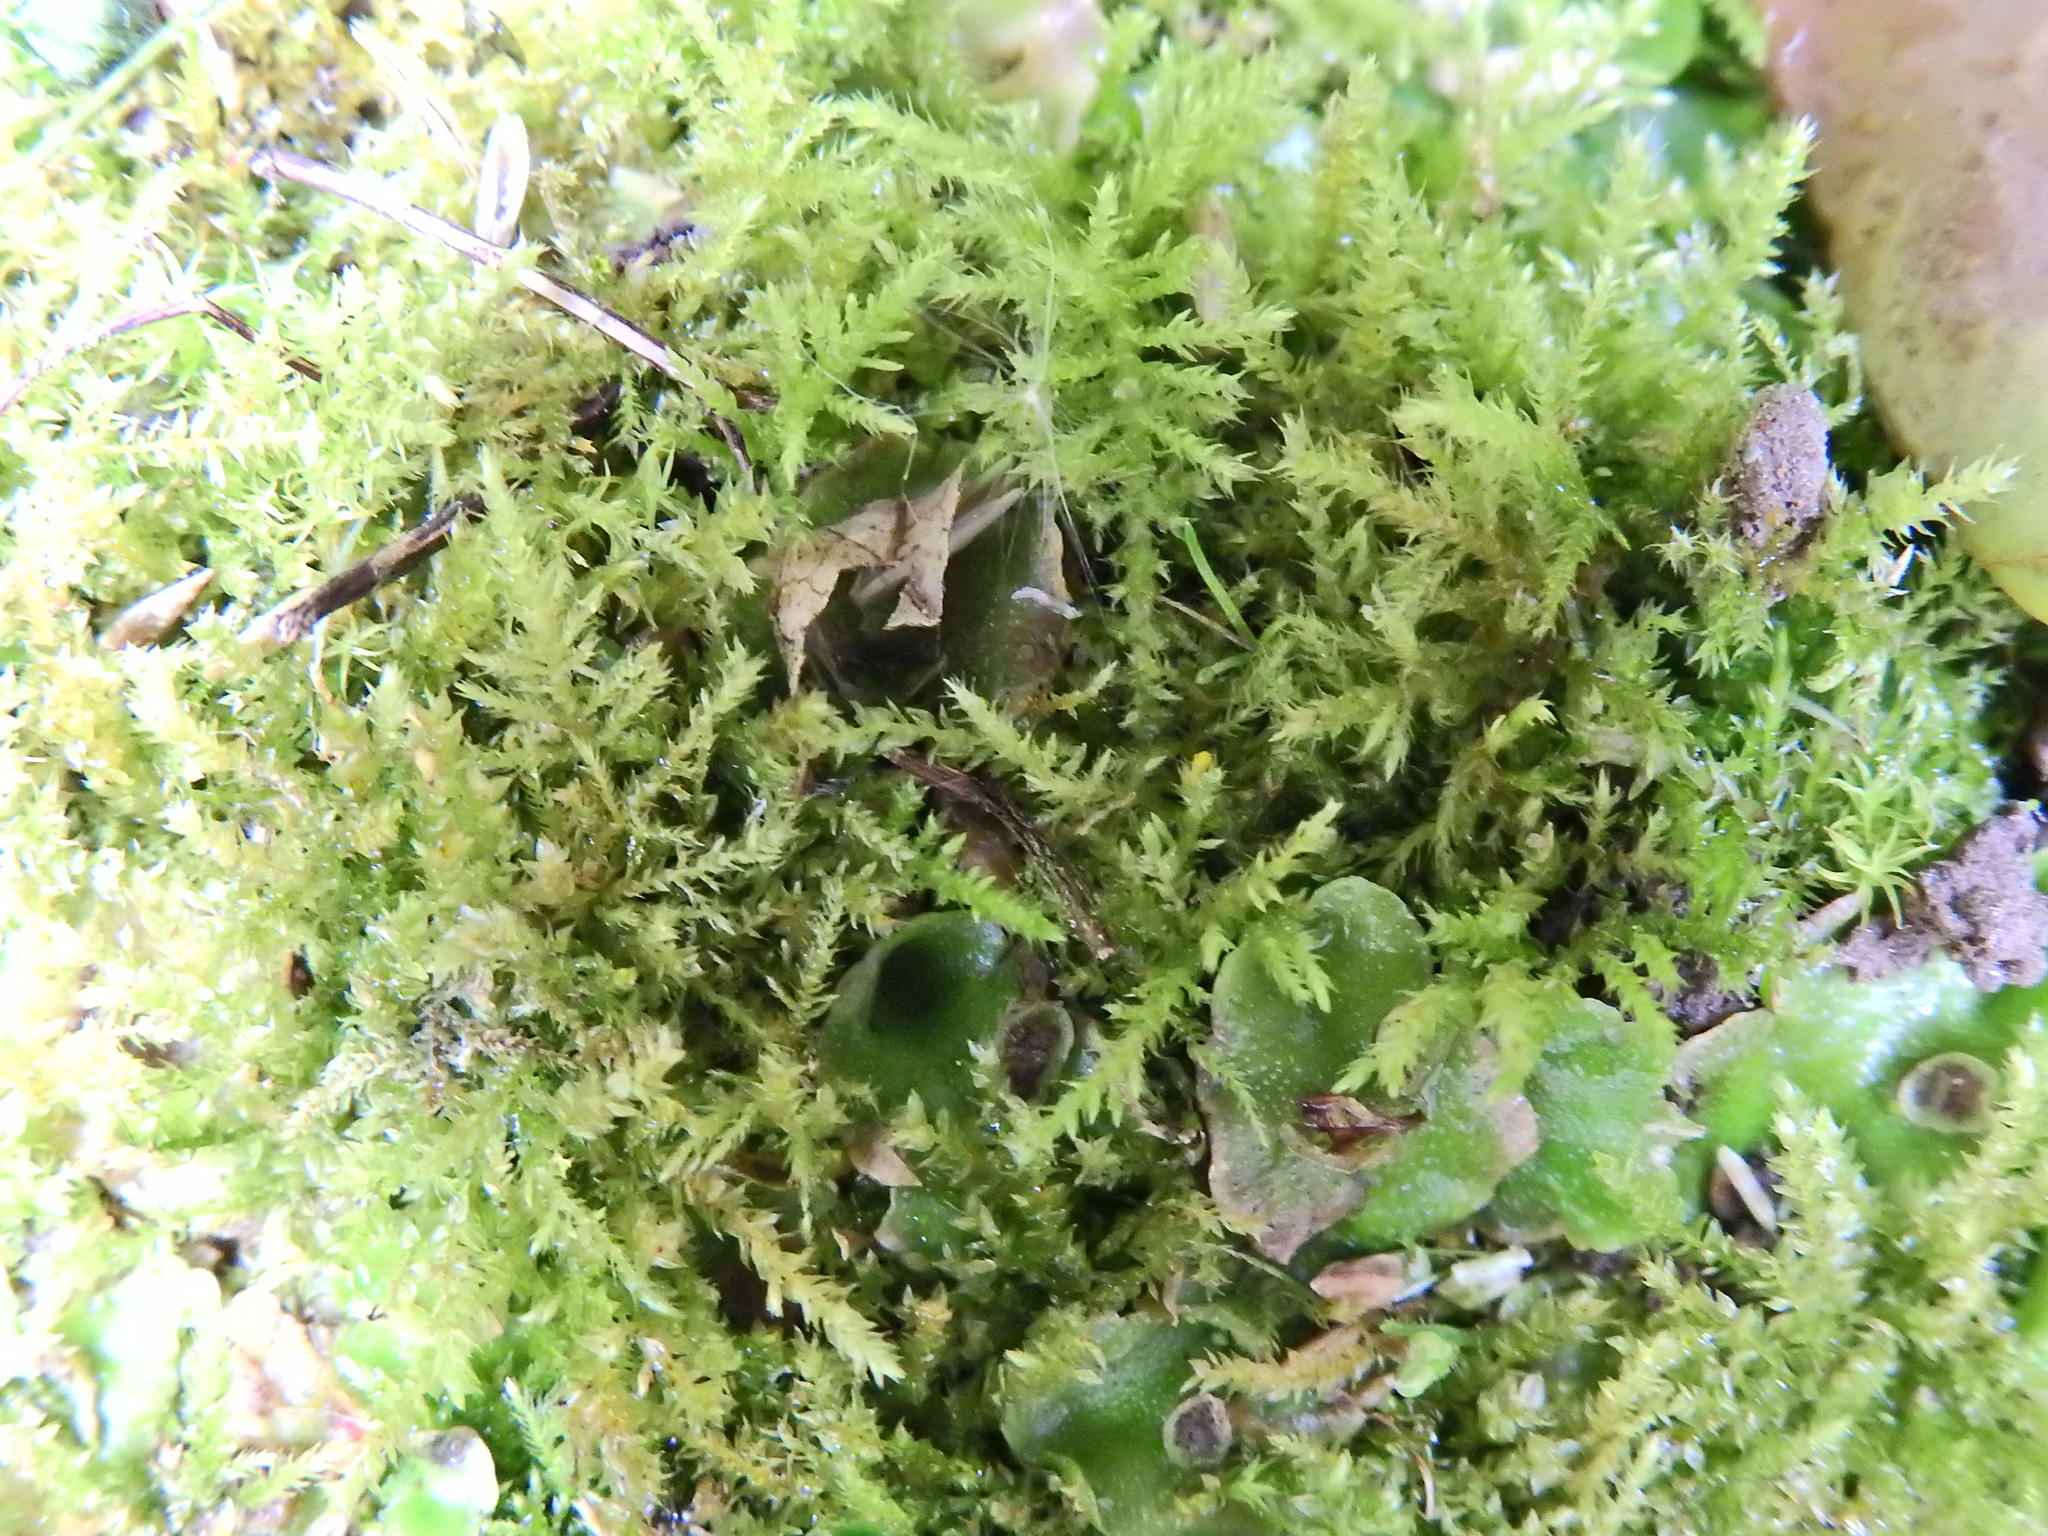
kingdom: Plantae
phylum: Bryophyta
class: Bryopsida
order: Hypnales
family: Brachytheciaceae
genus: Kindbergia
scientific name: Kindbergia praelonga
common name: Slender beaked moss
